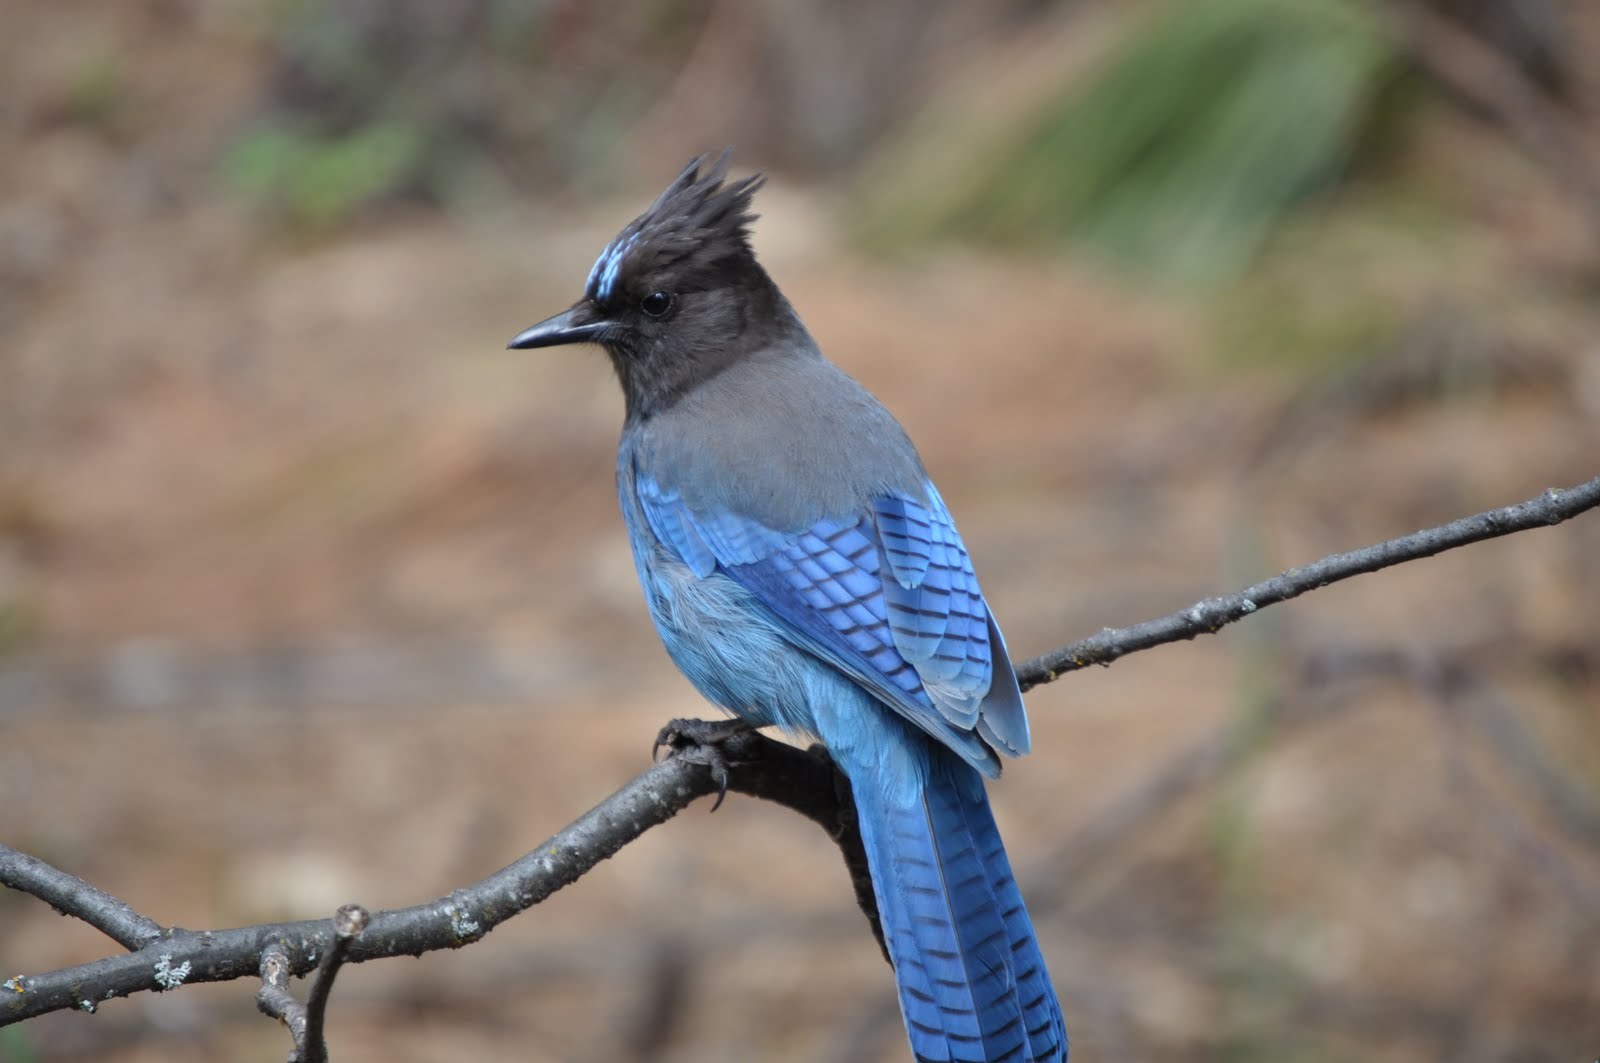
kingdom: Animalia
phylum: Chordata
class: Aves
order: Passeriformes
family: Corvidae
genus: Cyanocitta
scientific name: Cyanocitta stelleri
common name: Steller's jay
